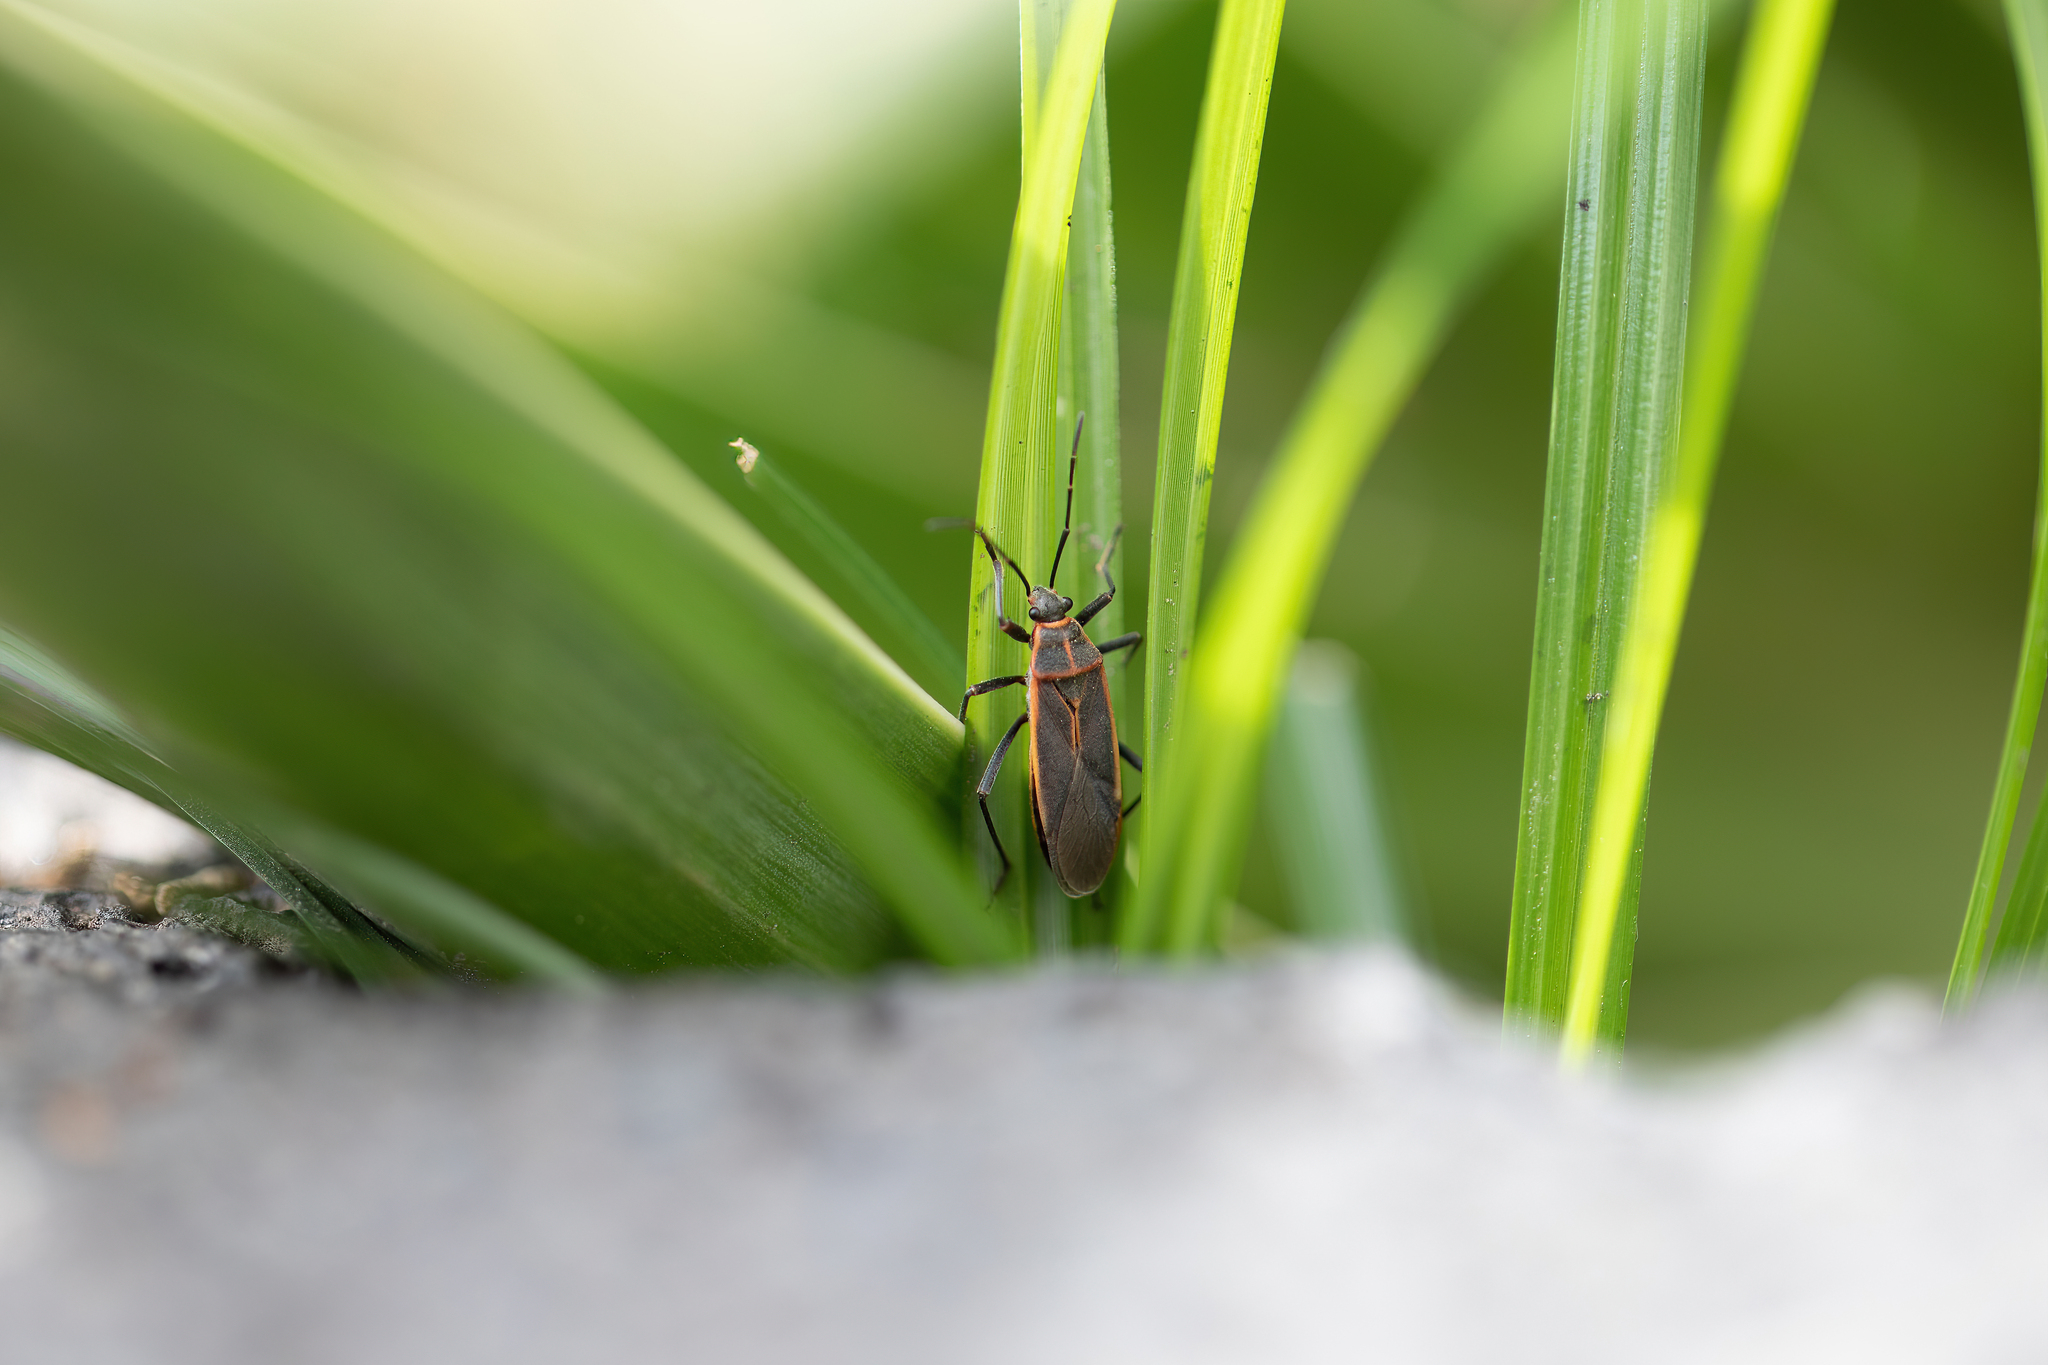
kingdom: Animalia
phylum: Arthropoda
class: Insecta
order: Hemiptera
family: Largidae
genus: Stenomacra
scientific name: Stenomacra marginella
